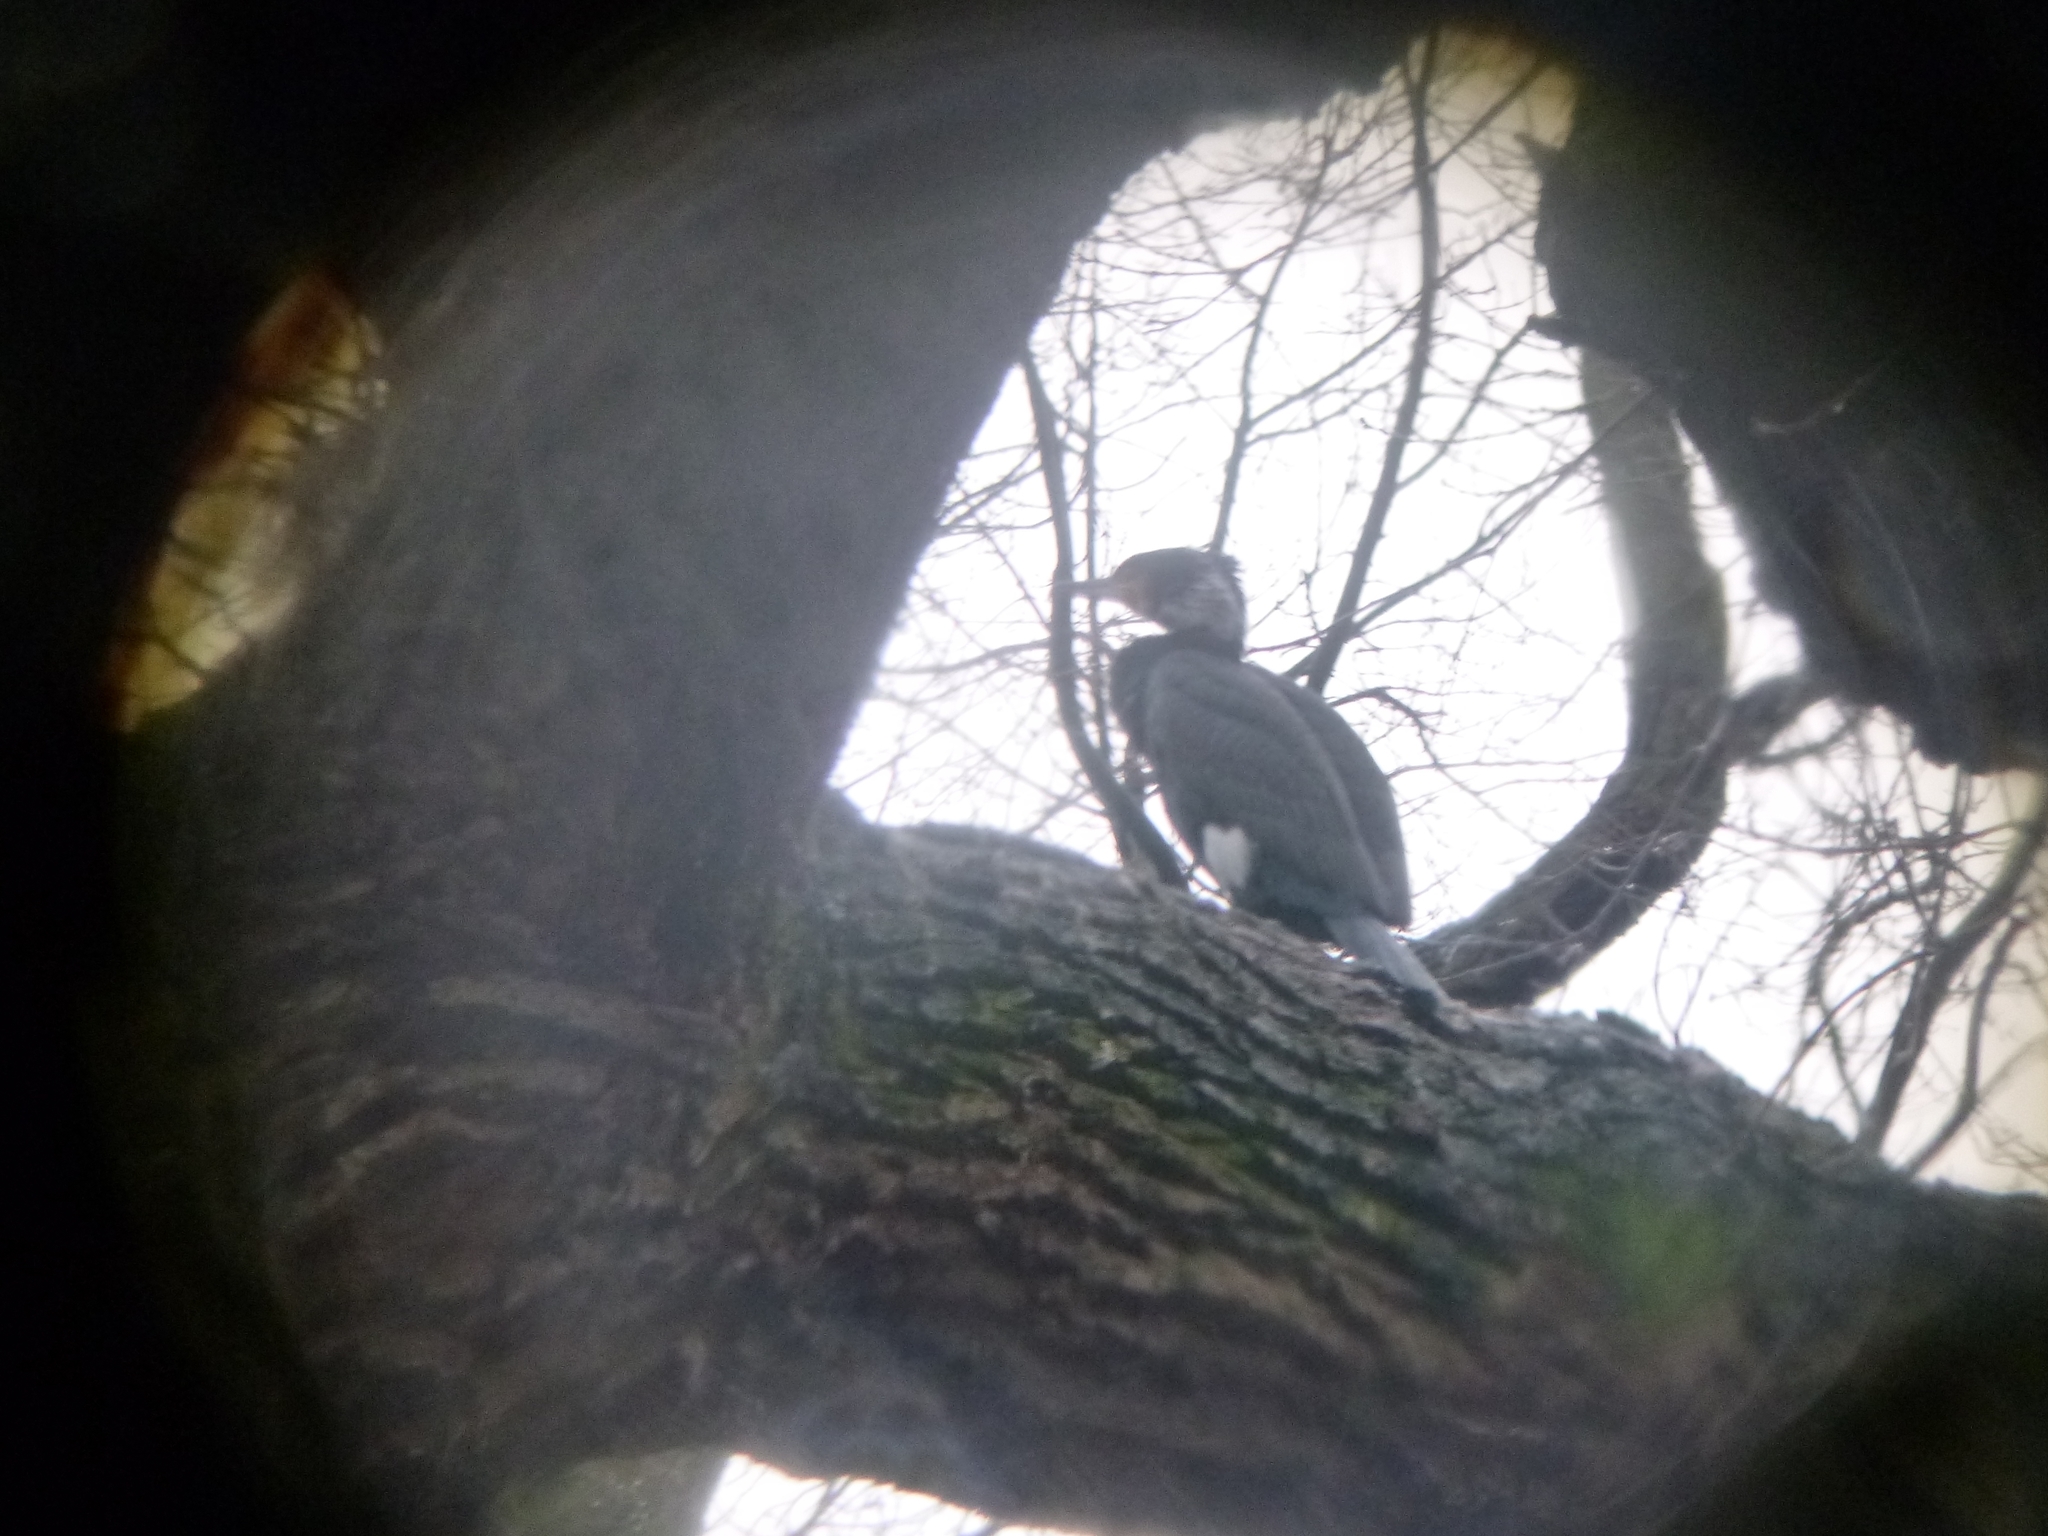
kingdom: Animalia
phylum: Chordata
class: Aves
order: Suliformes
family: Phalacrocoracidae
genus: Phalacrocorax
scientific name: Phalacrocorax carbo
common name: Great cormorant
